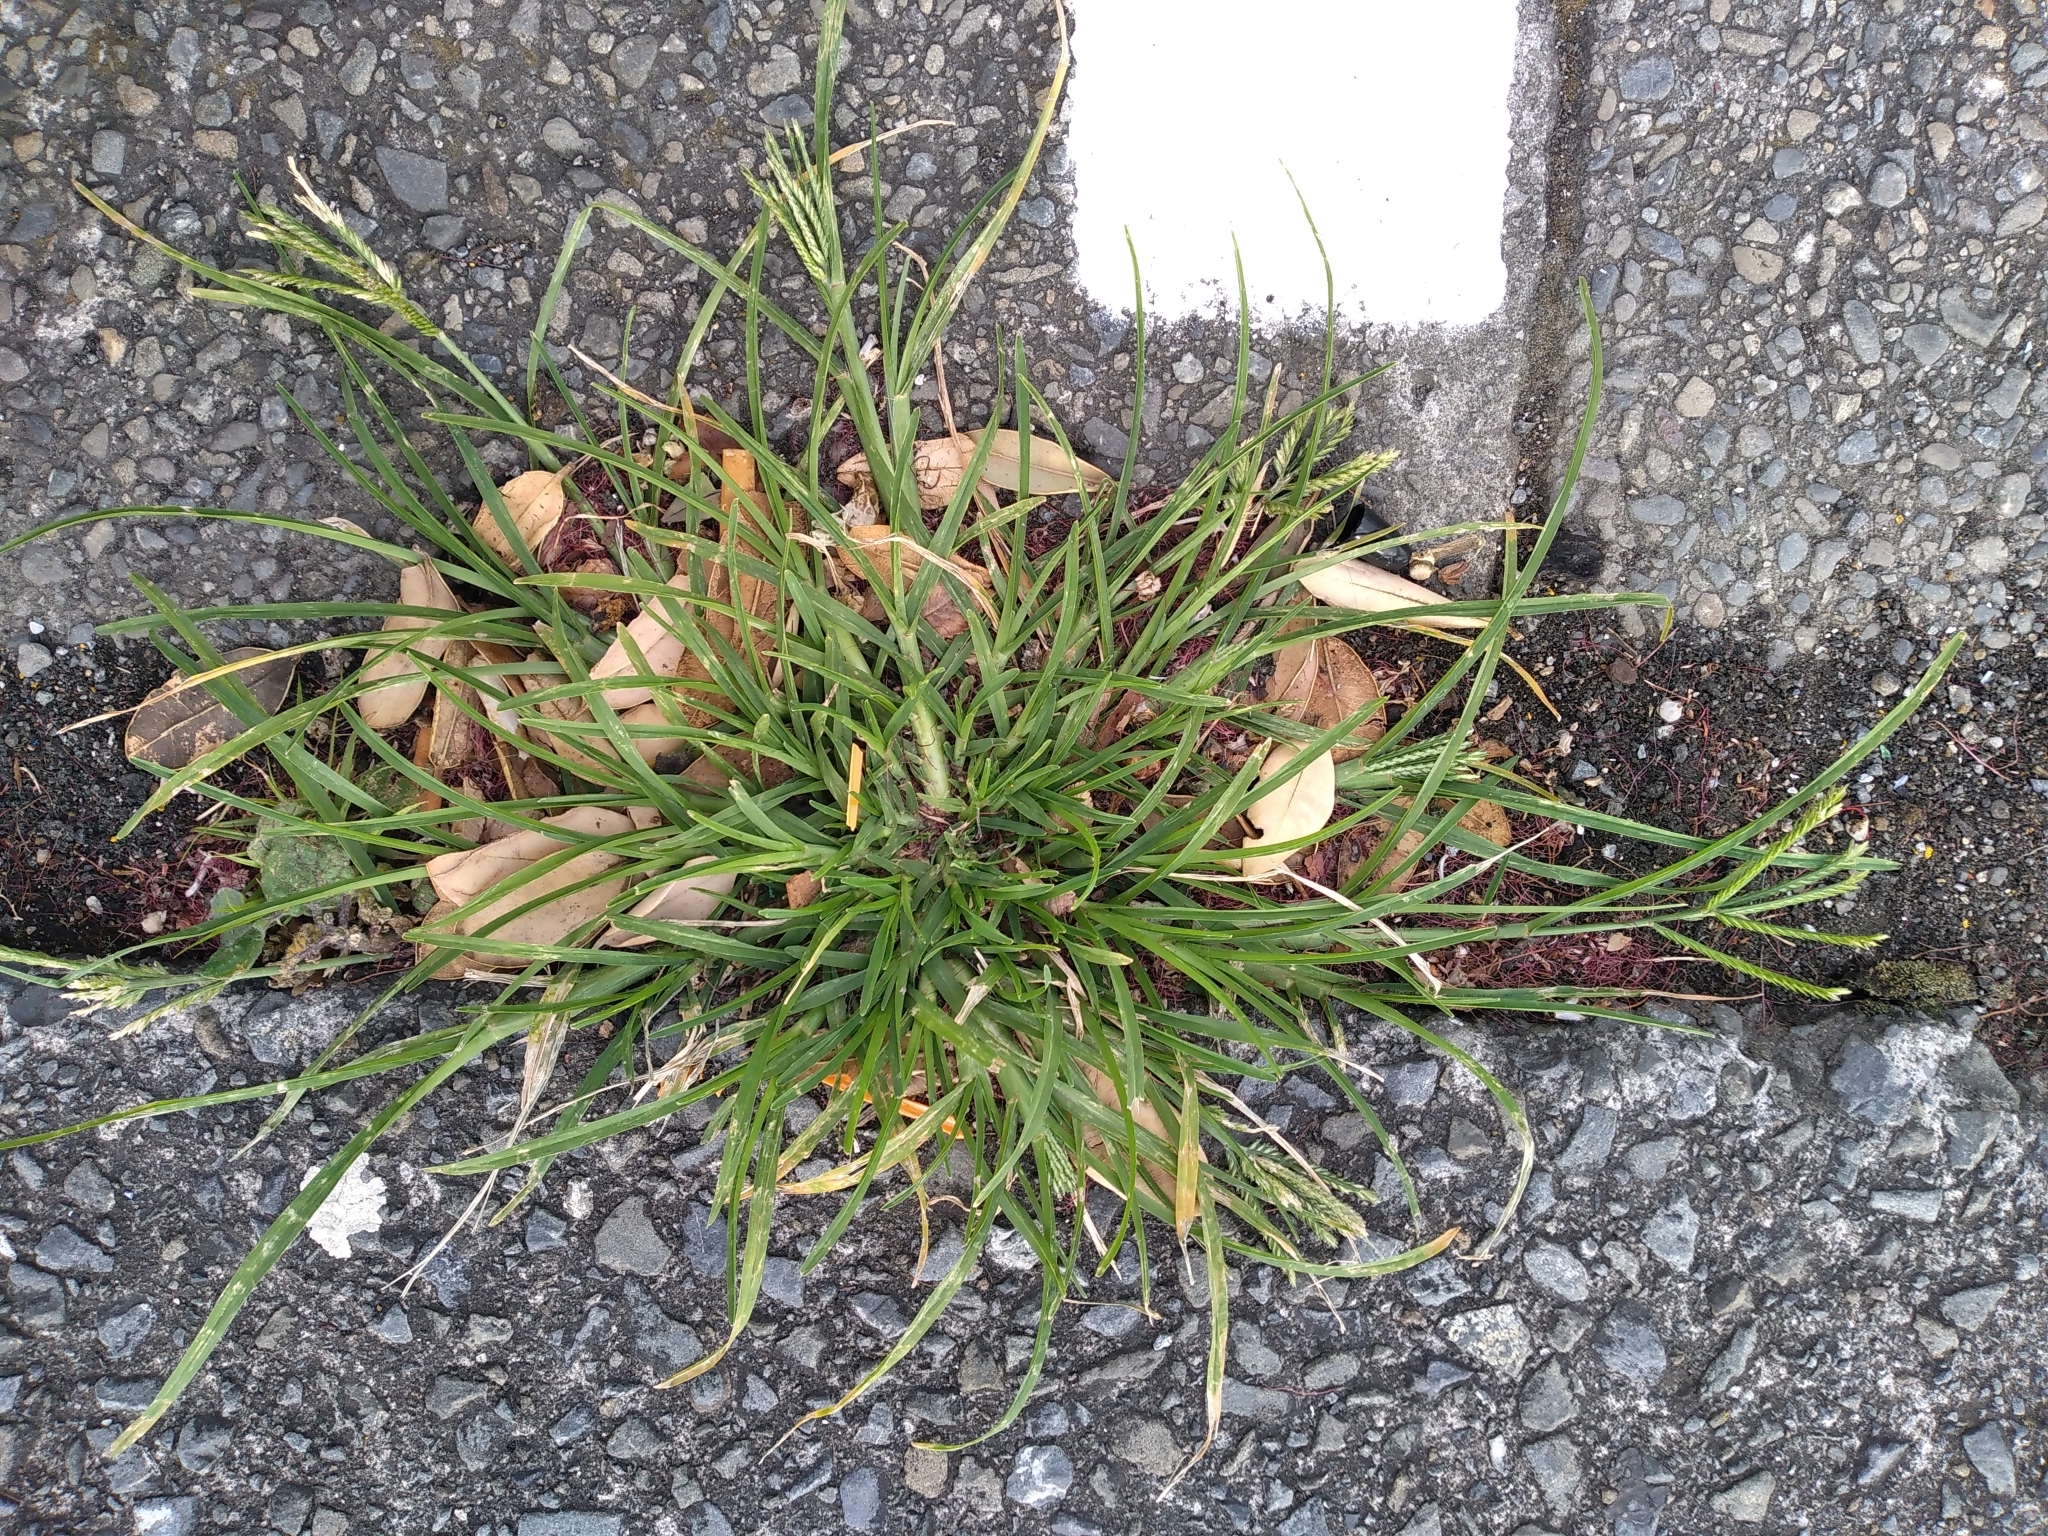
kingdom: Plantae
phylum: Tracheophyta
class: Liliopsida
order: Poales
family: Poaceae
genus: Eleusine
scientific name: Eleusine indica
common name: Yard-grass
